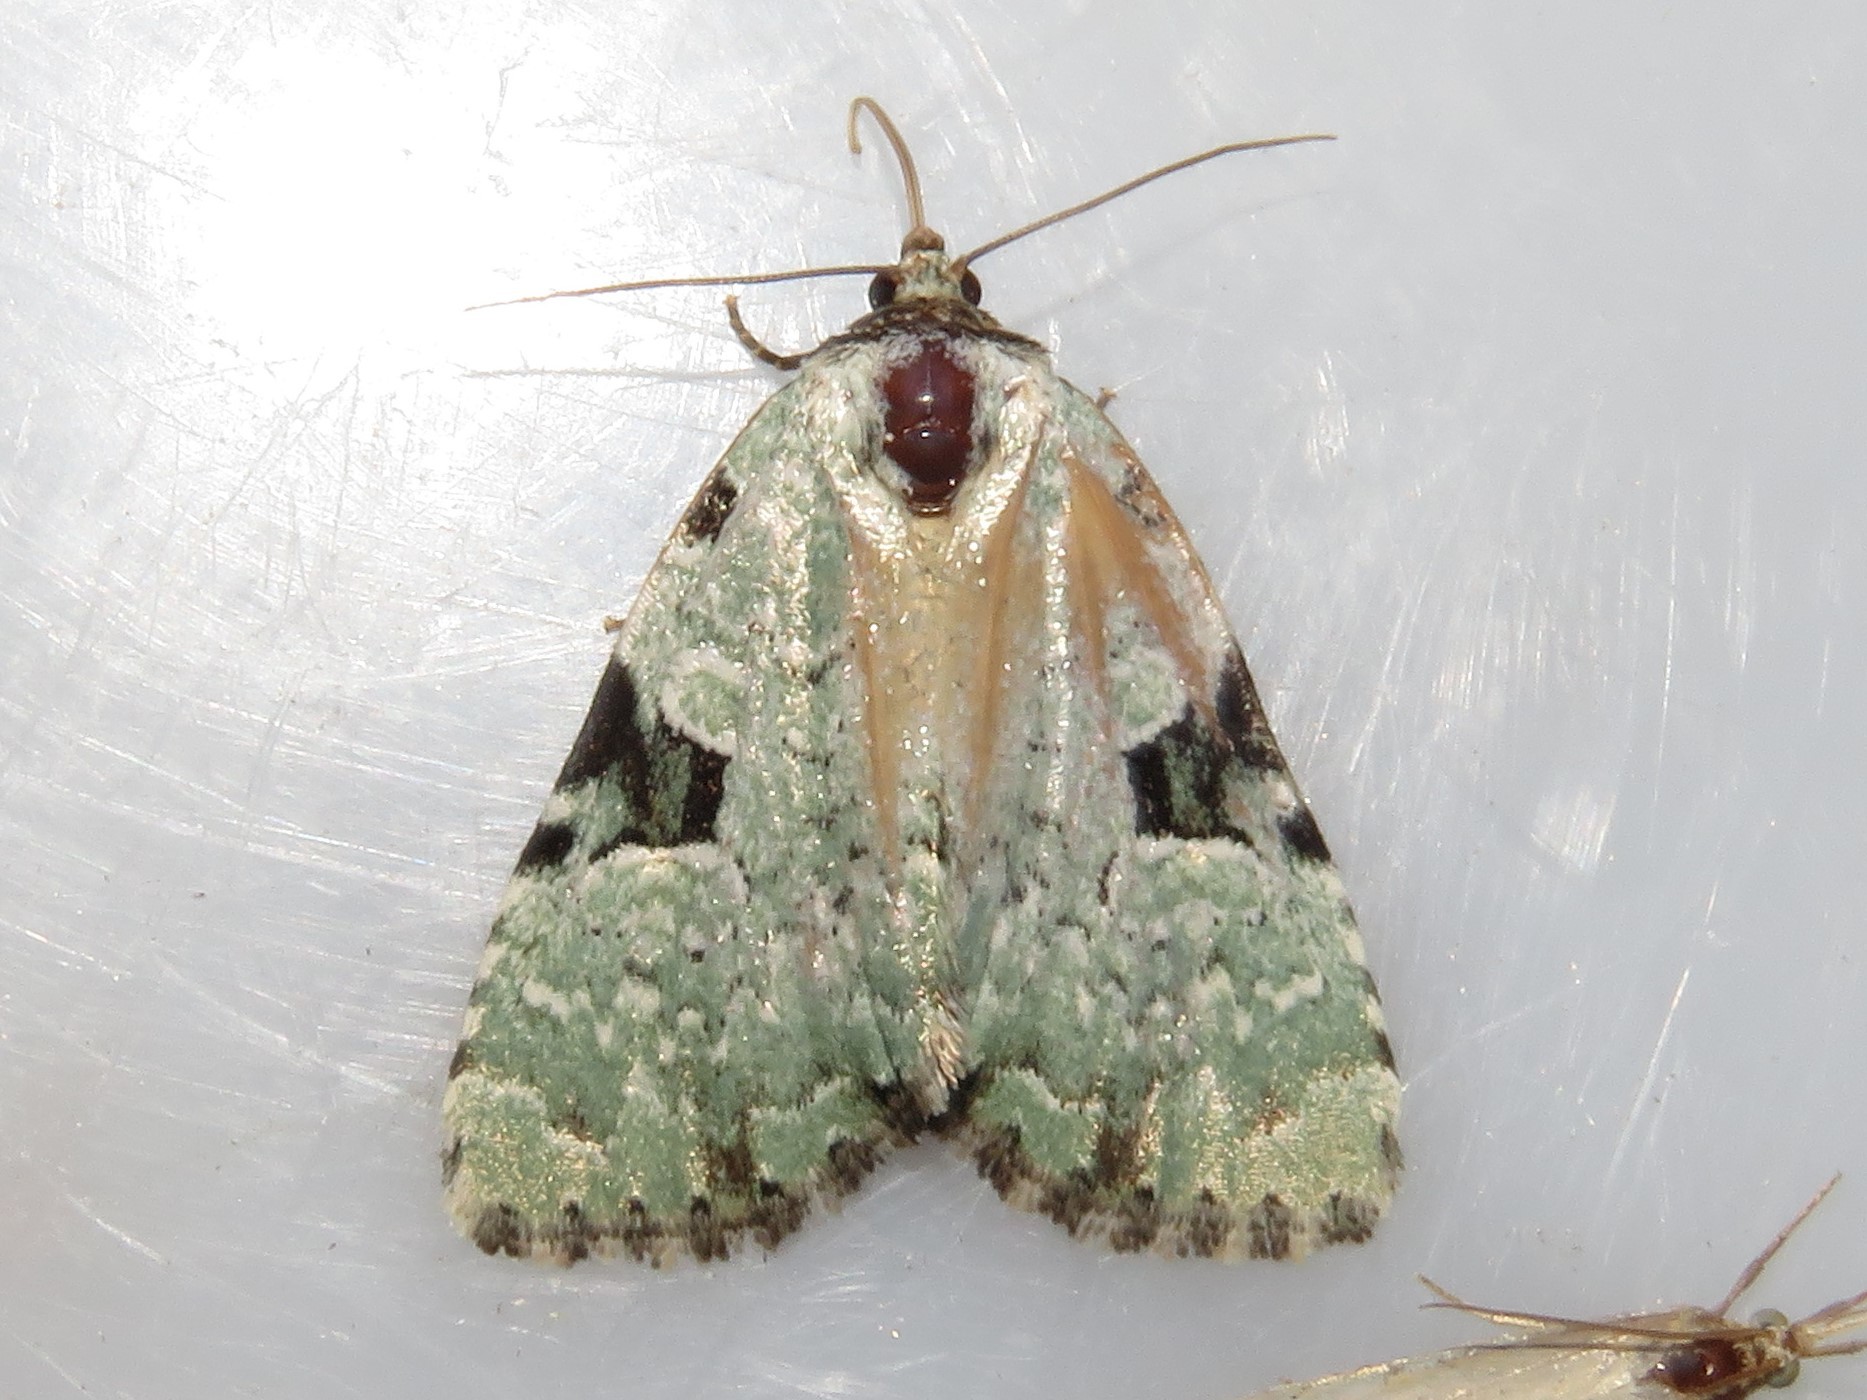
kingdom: Animalia
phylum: Arthropoda
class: Insecta
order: Lepidoptera
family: Noctuidae
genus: Leuconycta
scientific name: Leuconycta diphteroides
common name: Green leuconycta moth
